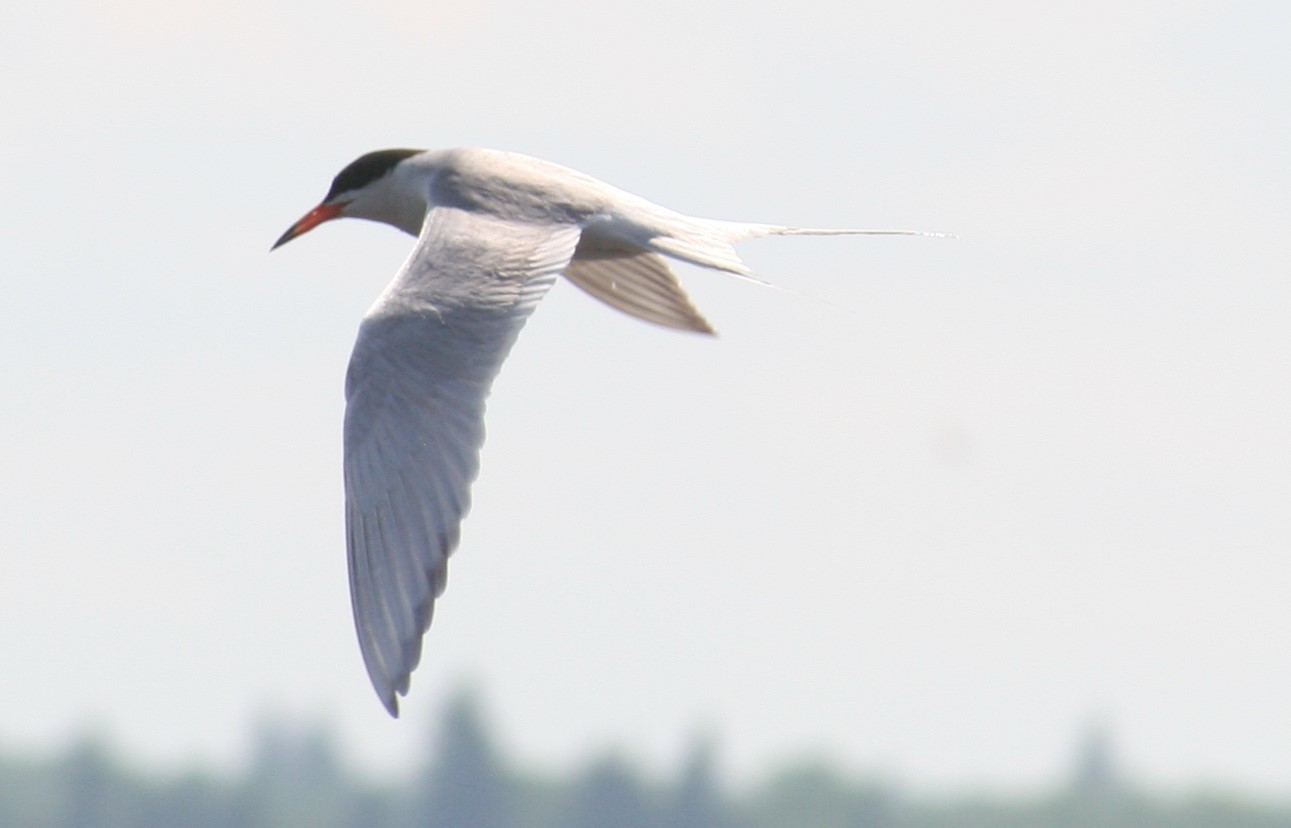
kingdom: Animalia
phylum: Chordata
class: Aves
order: Charadriiformes
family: Laridae
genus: Sterna
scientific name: Sterna forsteri
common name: Forster's tern
